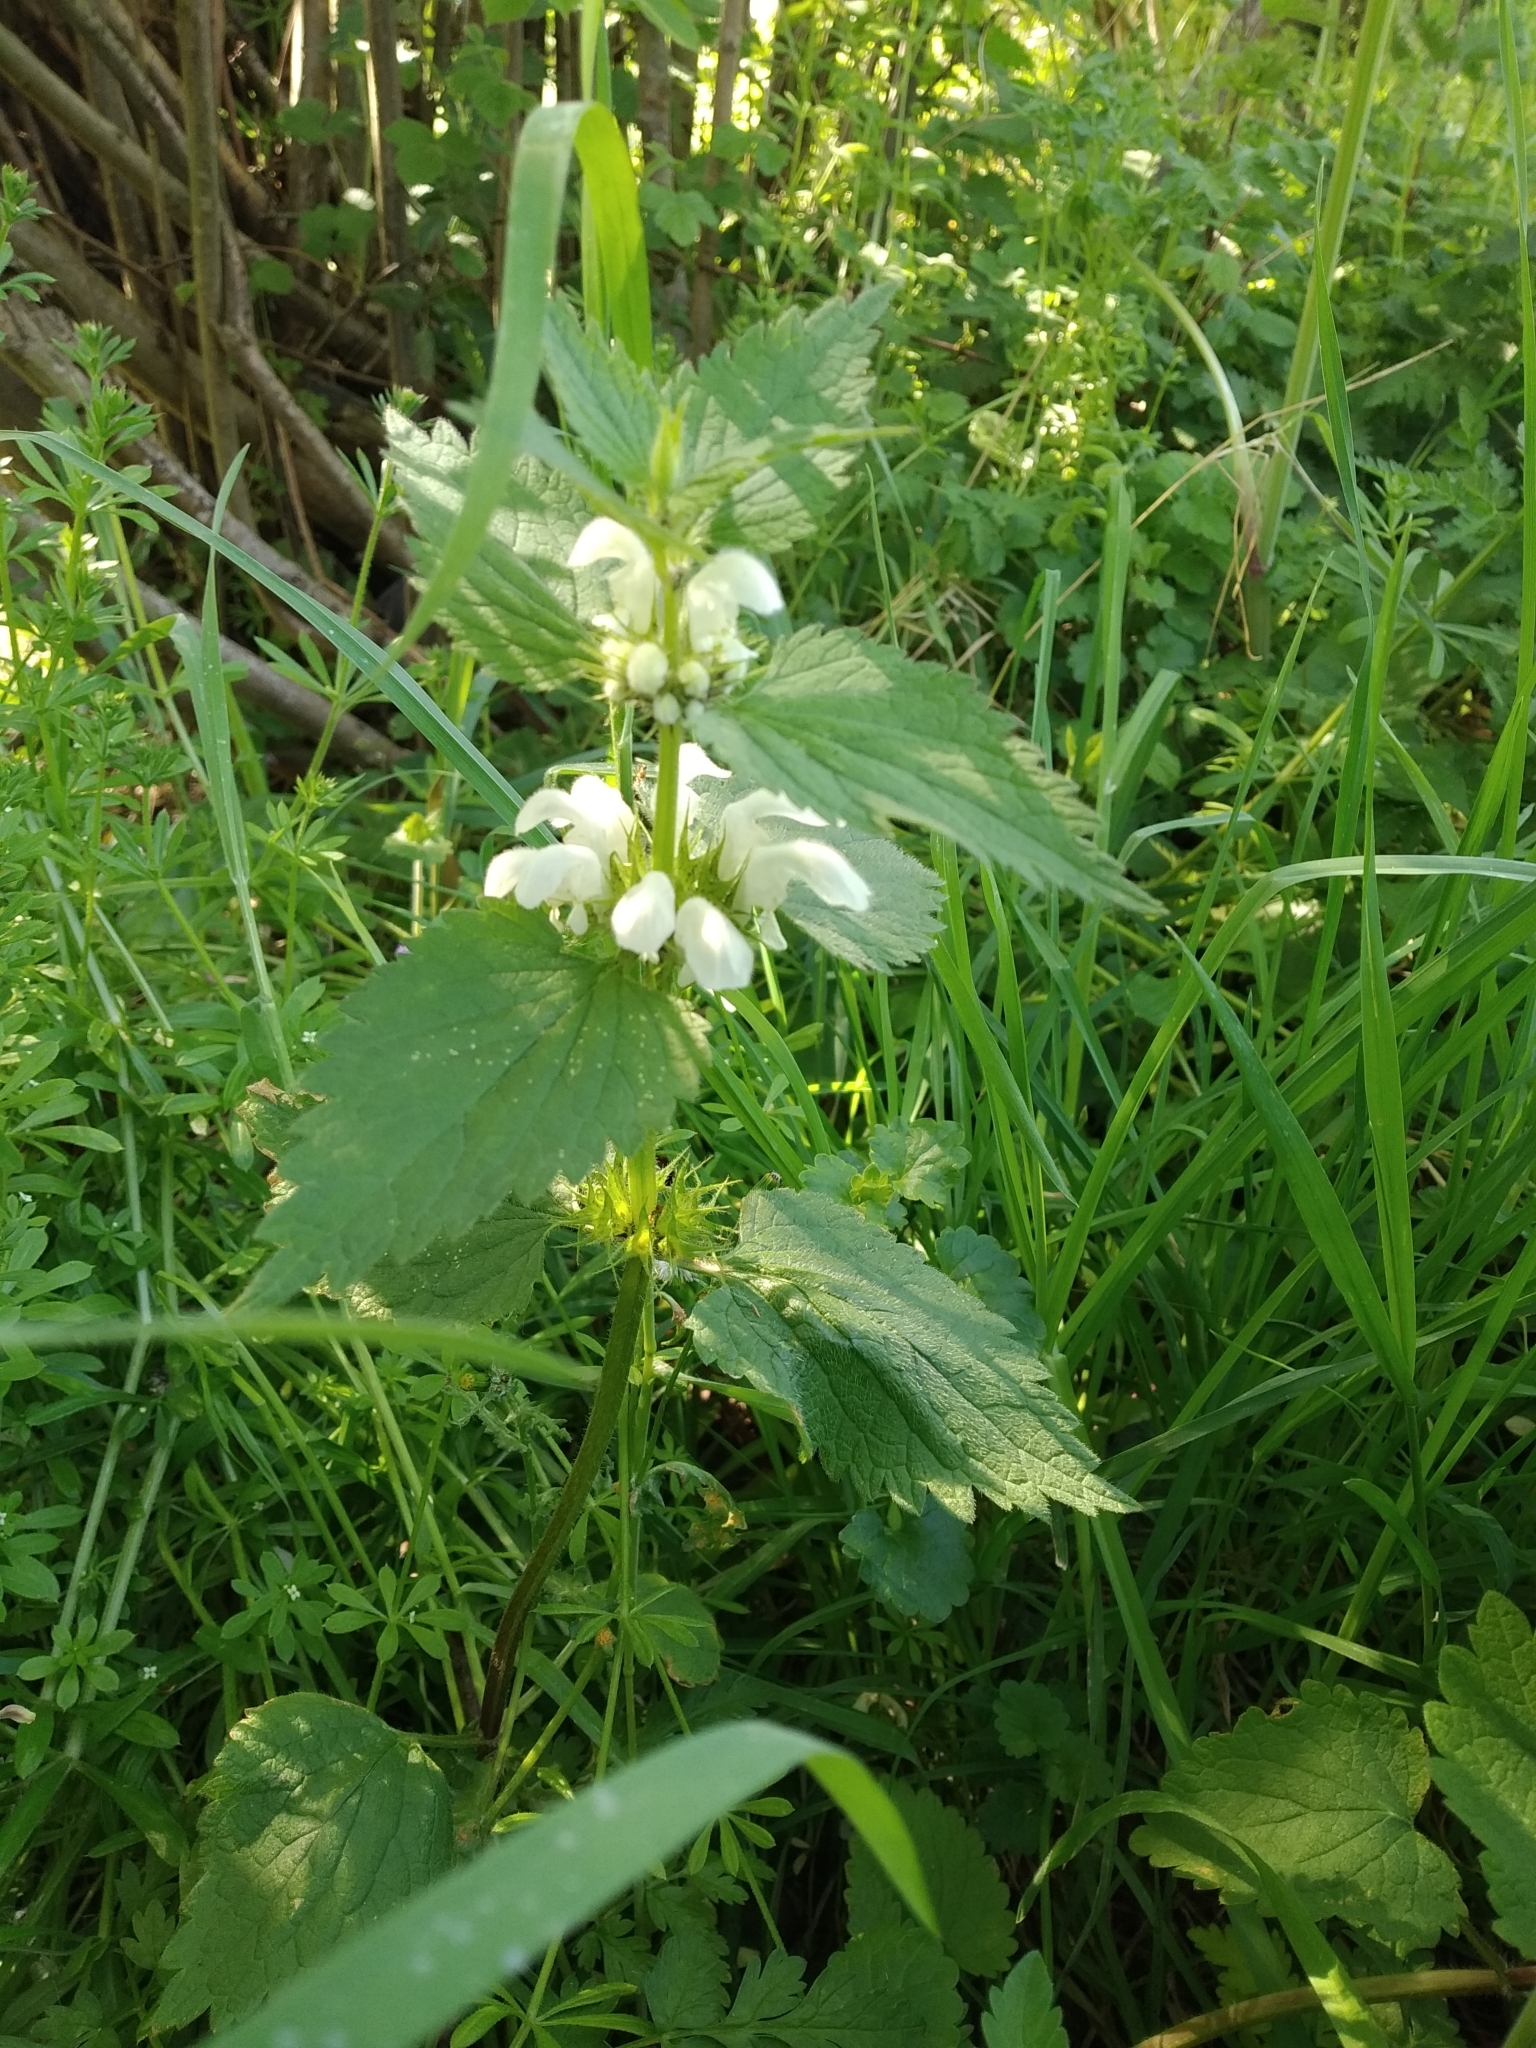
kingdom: Plantae
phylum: Tracheophyta
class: Magnoliopsida
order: Lamiales
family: Lamiaceae
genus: Lamium
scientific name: Lamium album
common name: White dead-nettle
